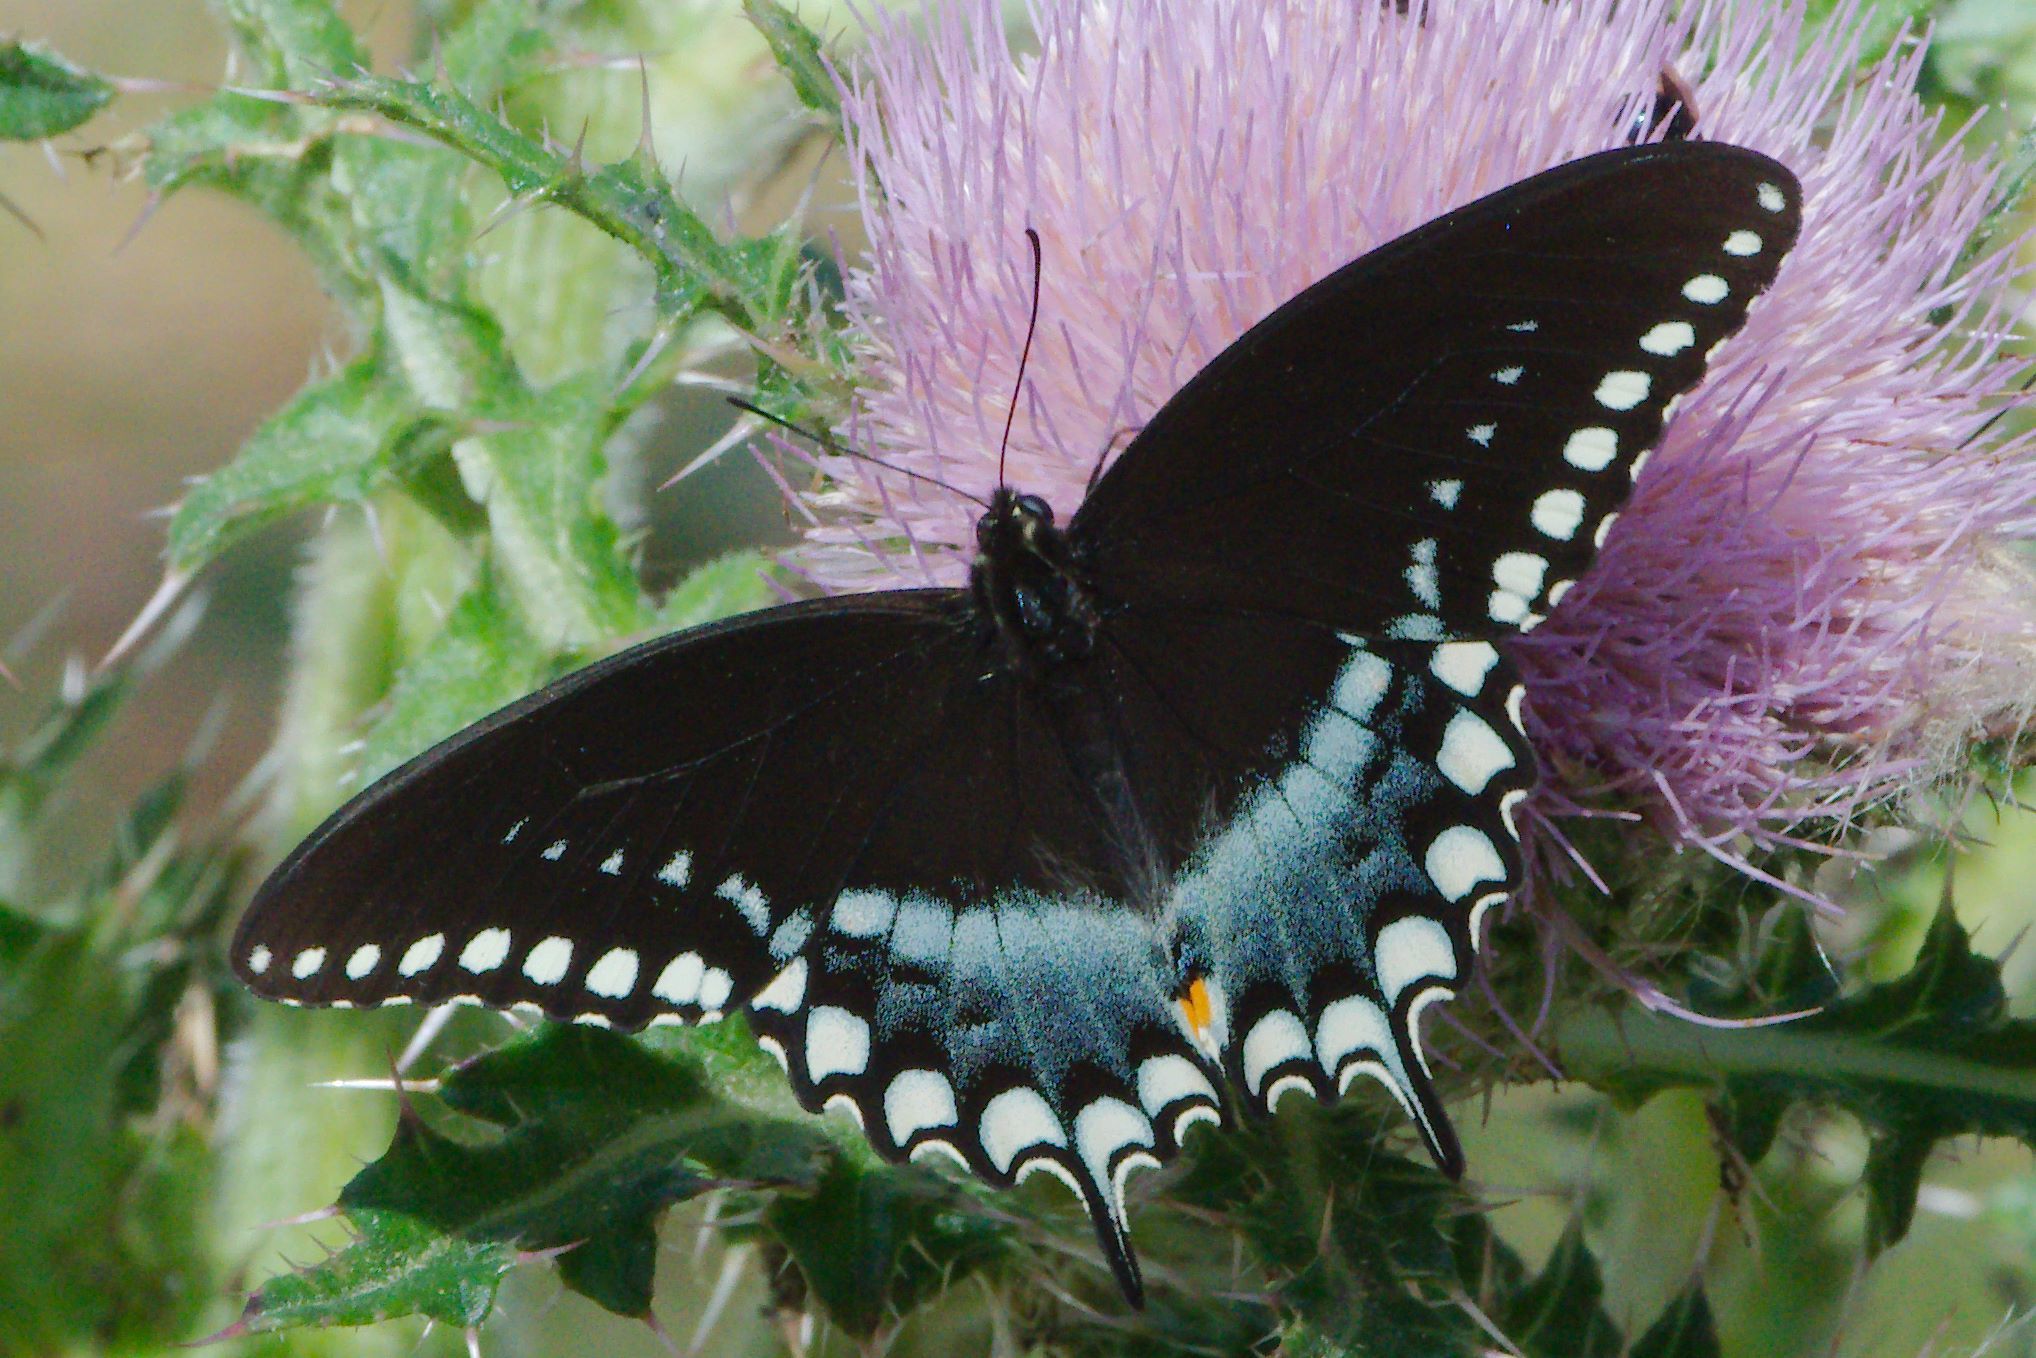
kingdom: Animalia
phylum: Arthropoda
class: Insecta
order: Lepidoptera
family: Papilionidae
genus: Papilio
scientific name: Papilio troilus
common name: Spicebush swallowtail
